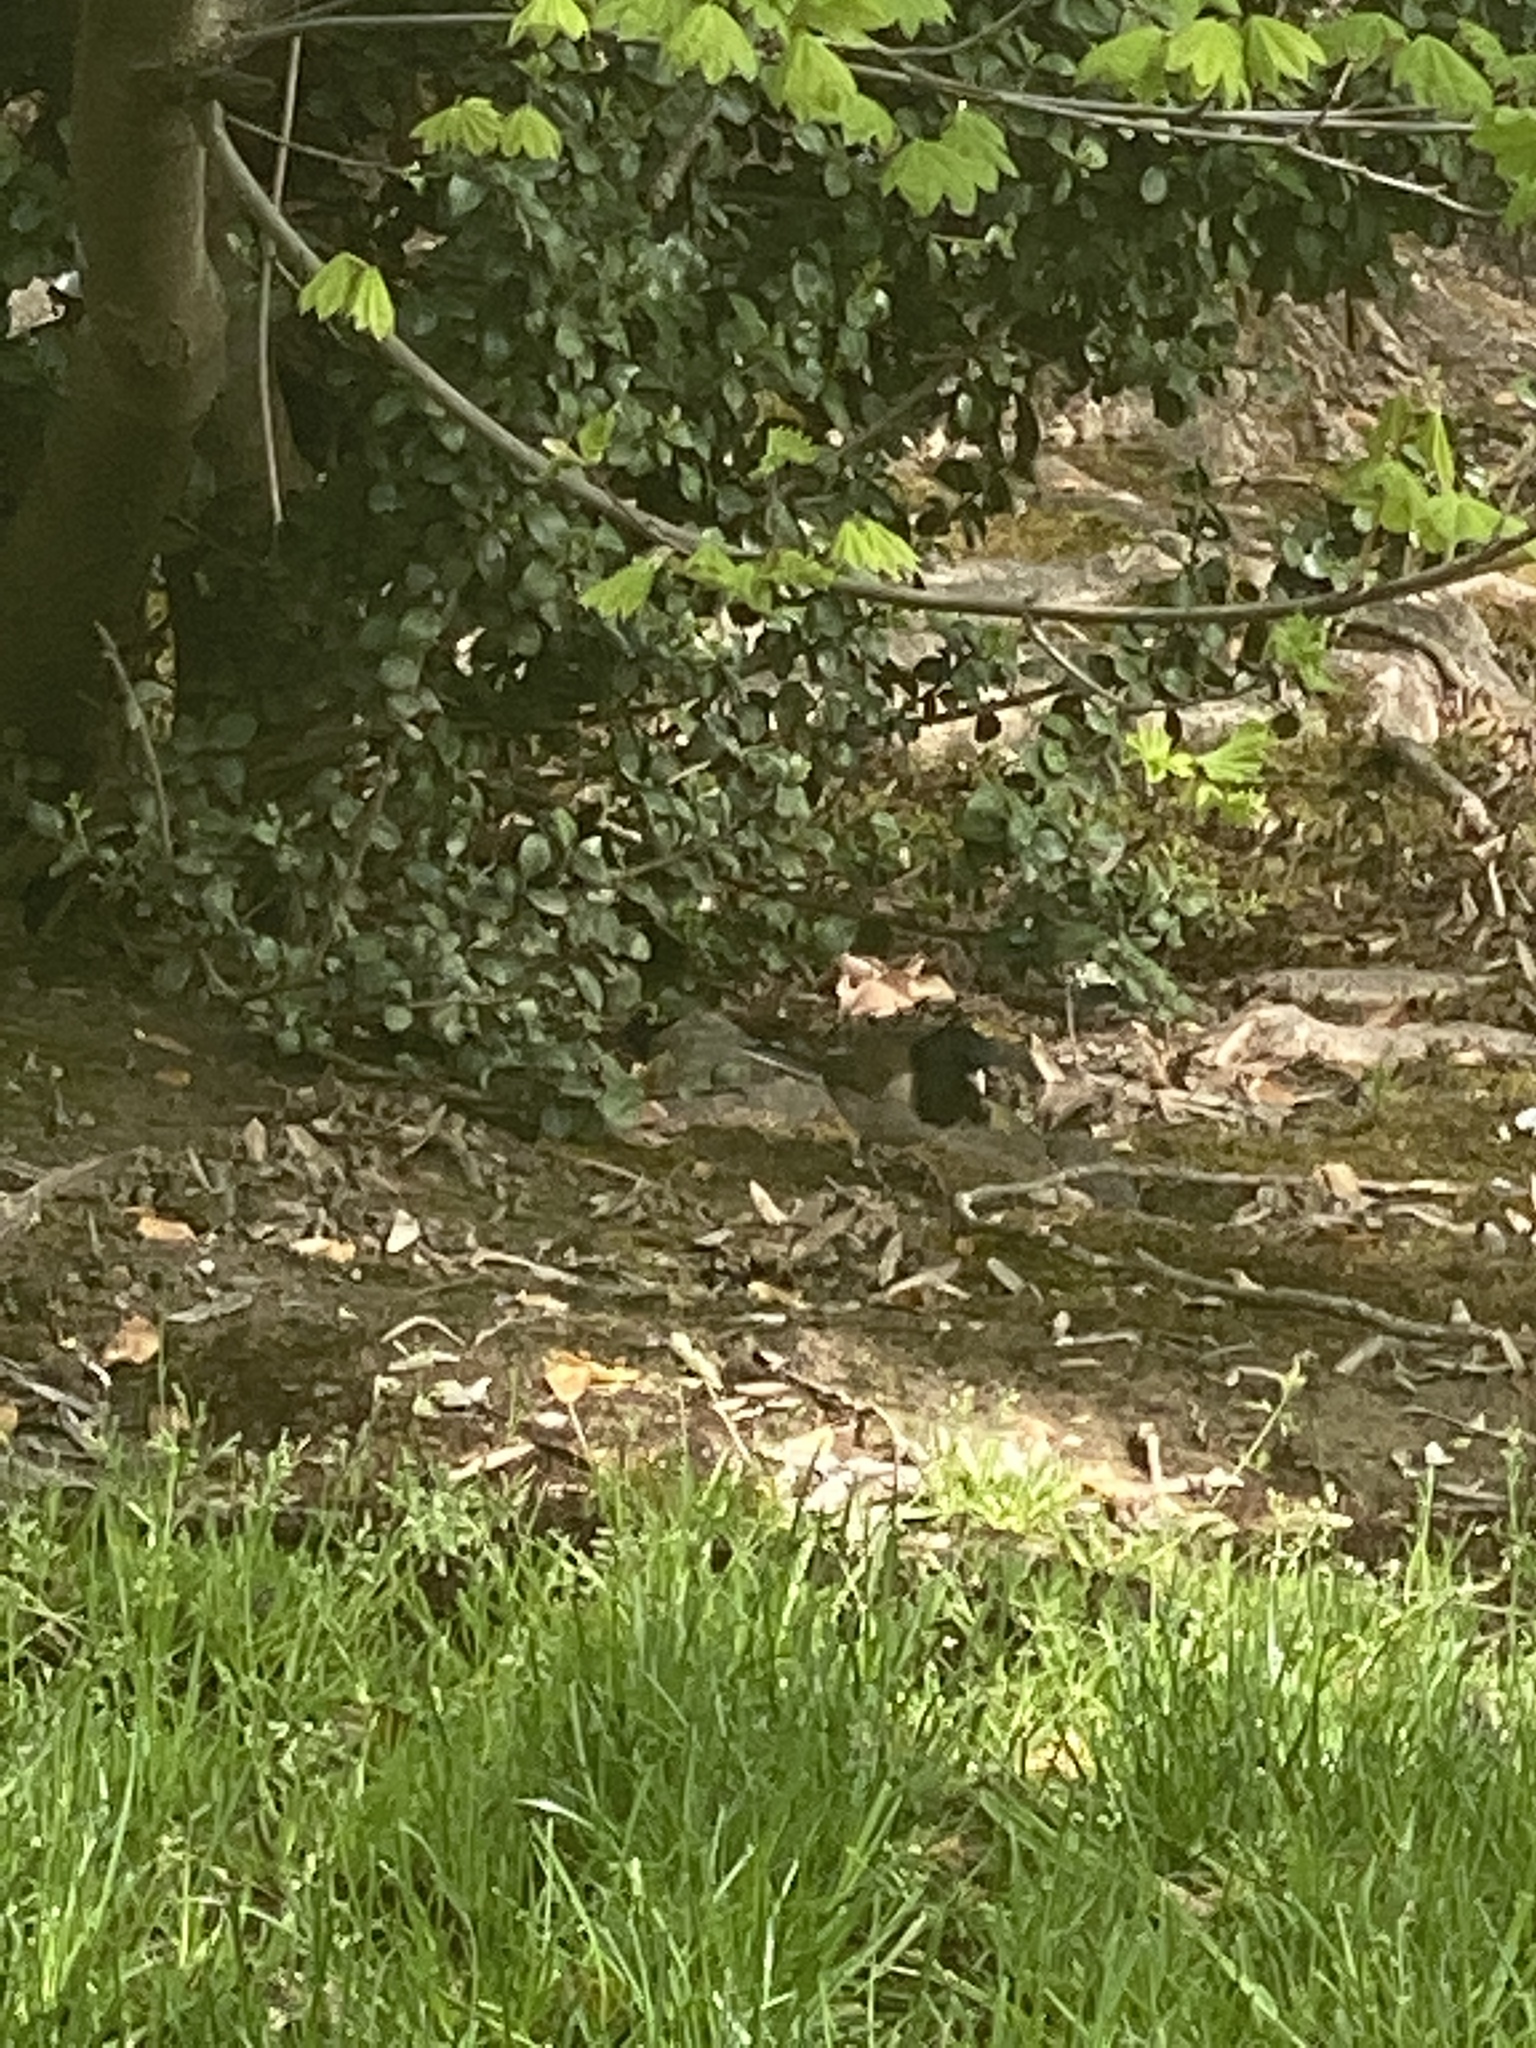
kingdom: Animalia
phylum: Chordata
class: Aves
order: Passeriformes
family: Passerellidae
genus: Junco
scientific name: Junco hyemalis
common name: Dark-eyed junco
